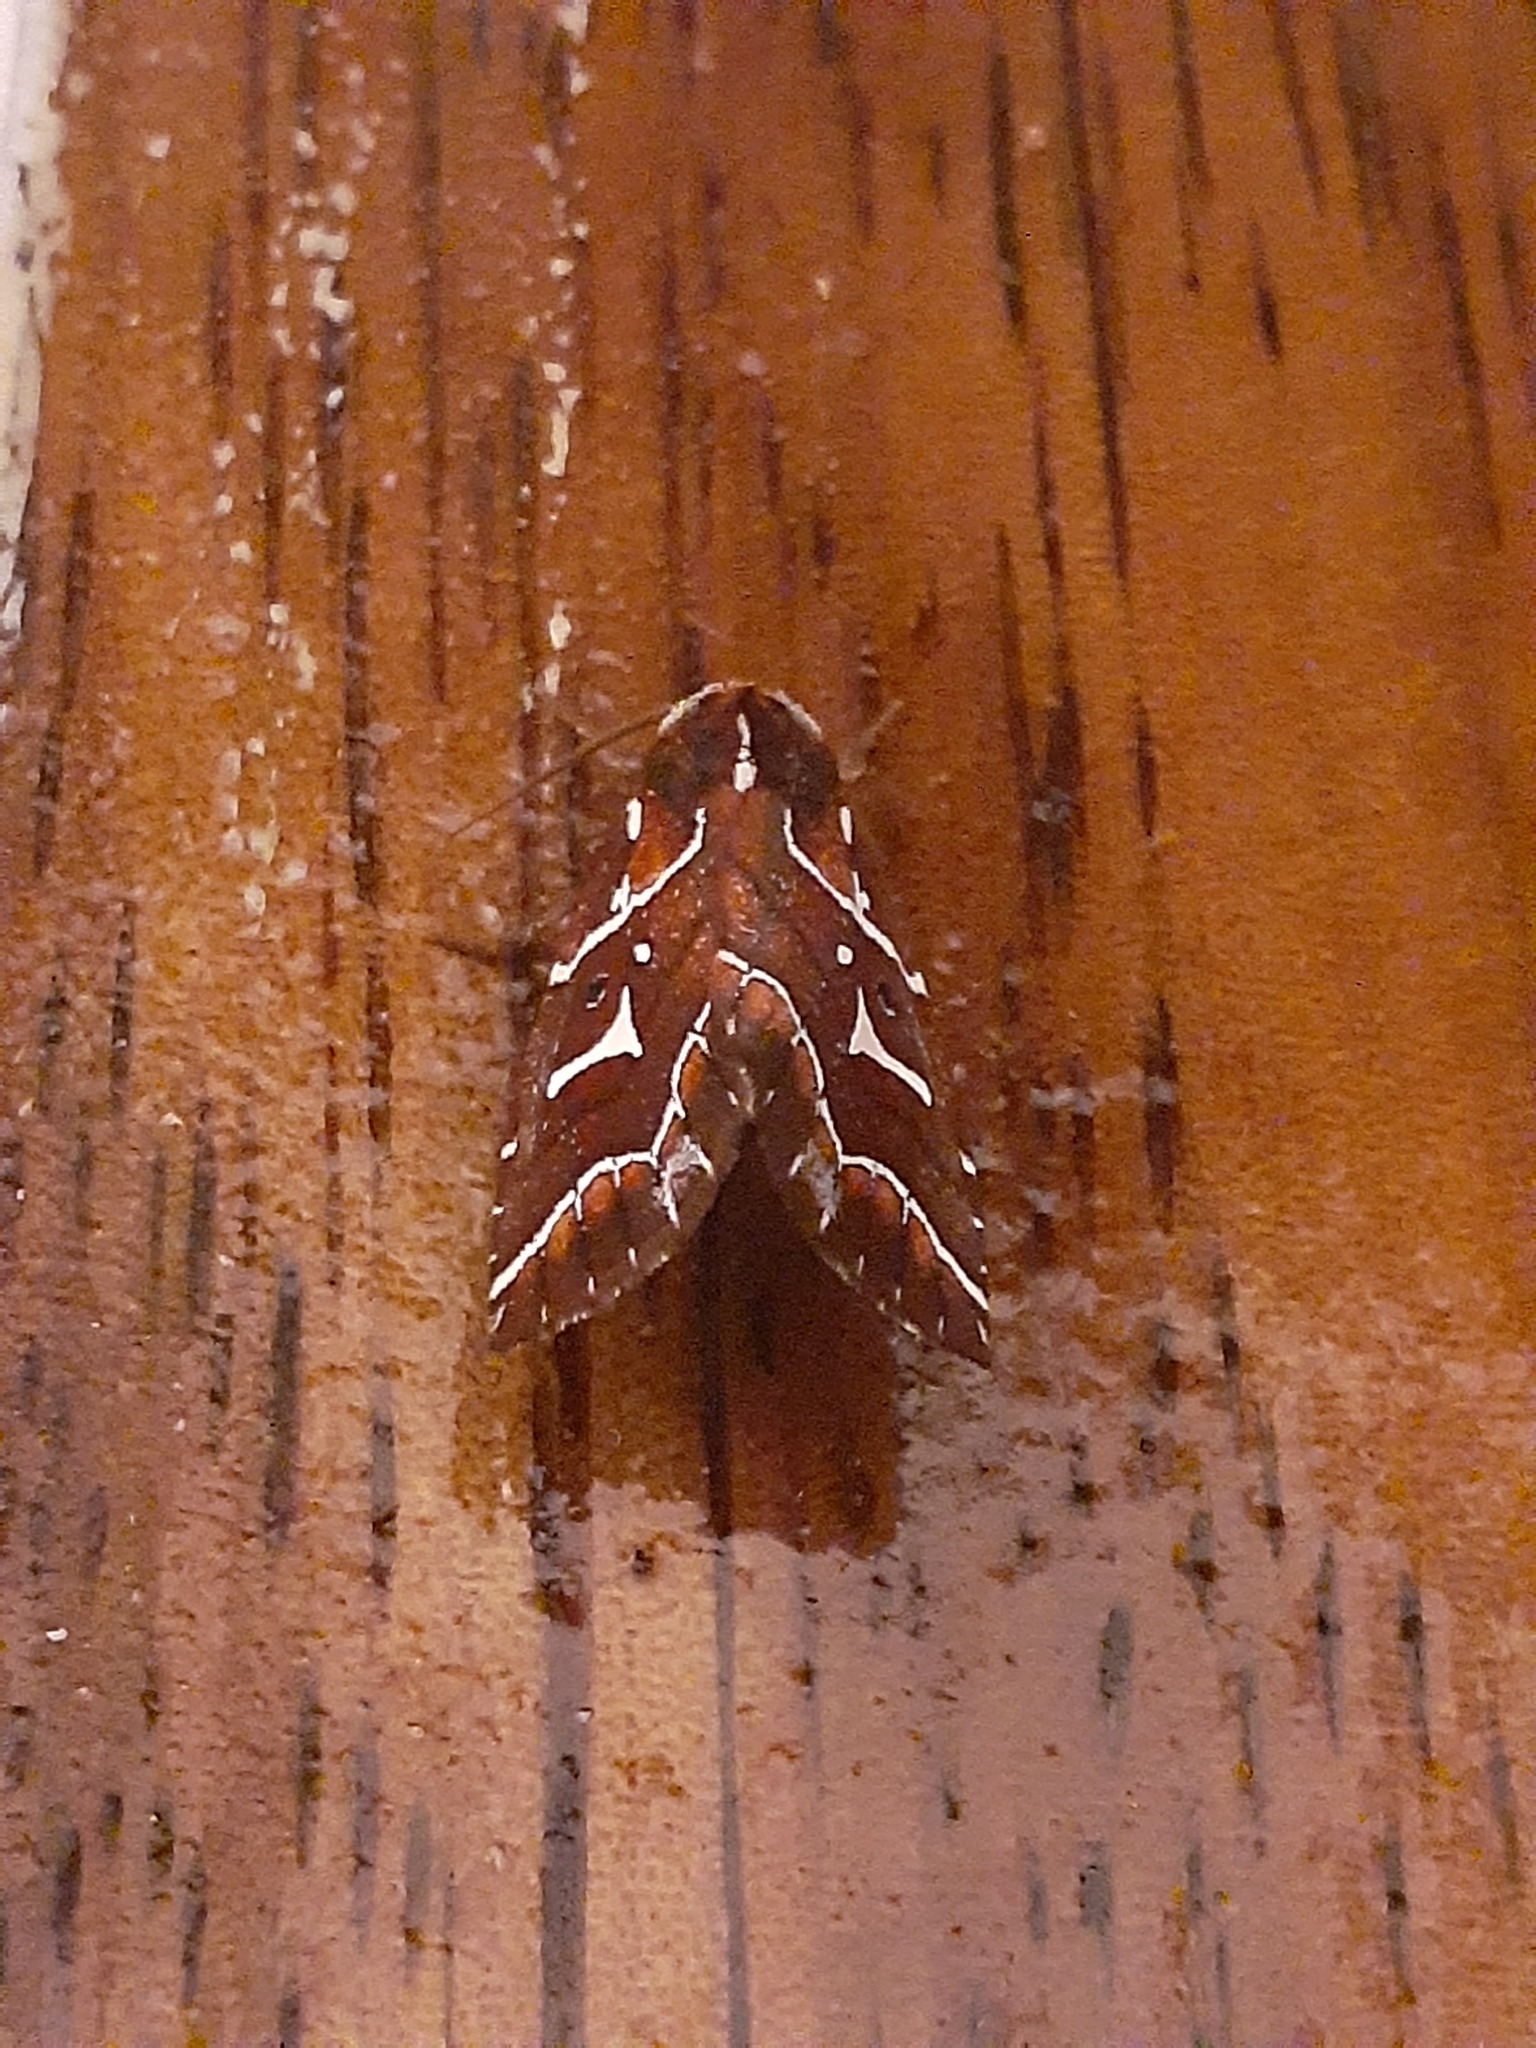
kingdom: Animalia
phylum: Arthropoda
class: Insecta
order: Lepidoptera
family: Noctuidae
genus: Selambina
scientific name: Selambina trajiciens
